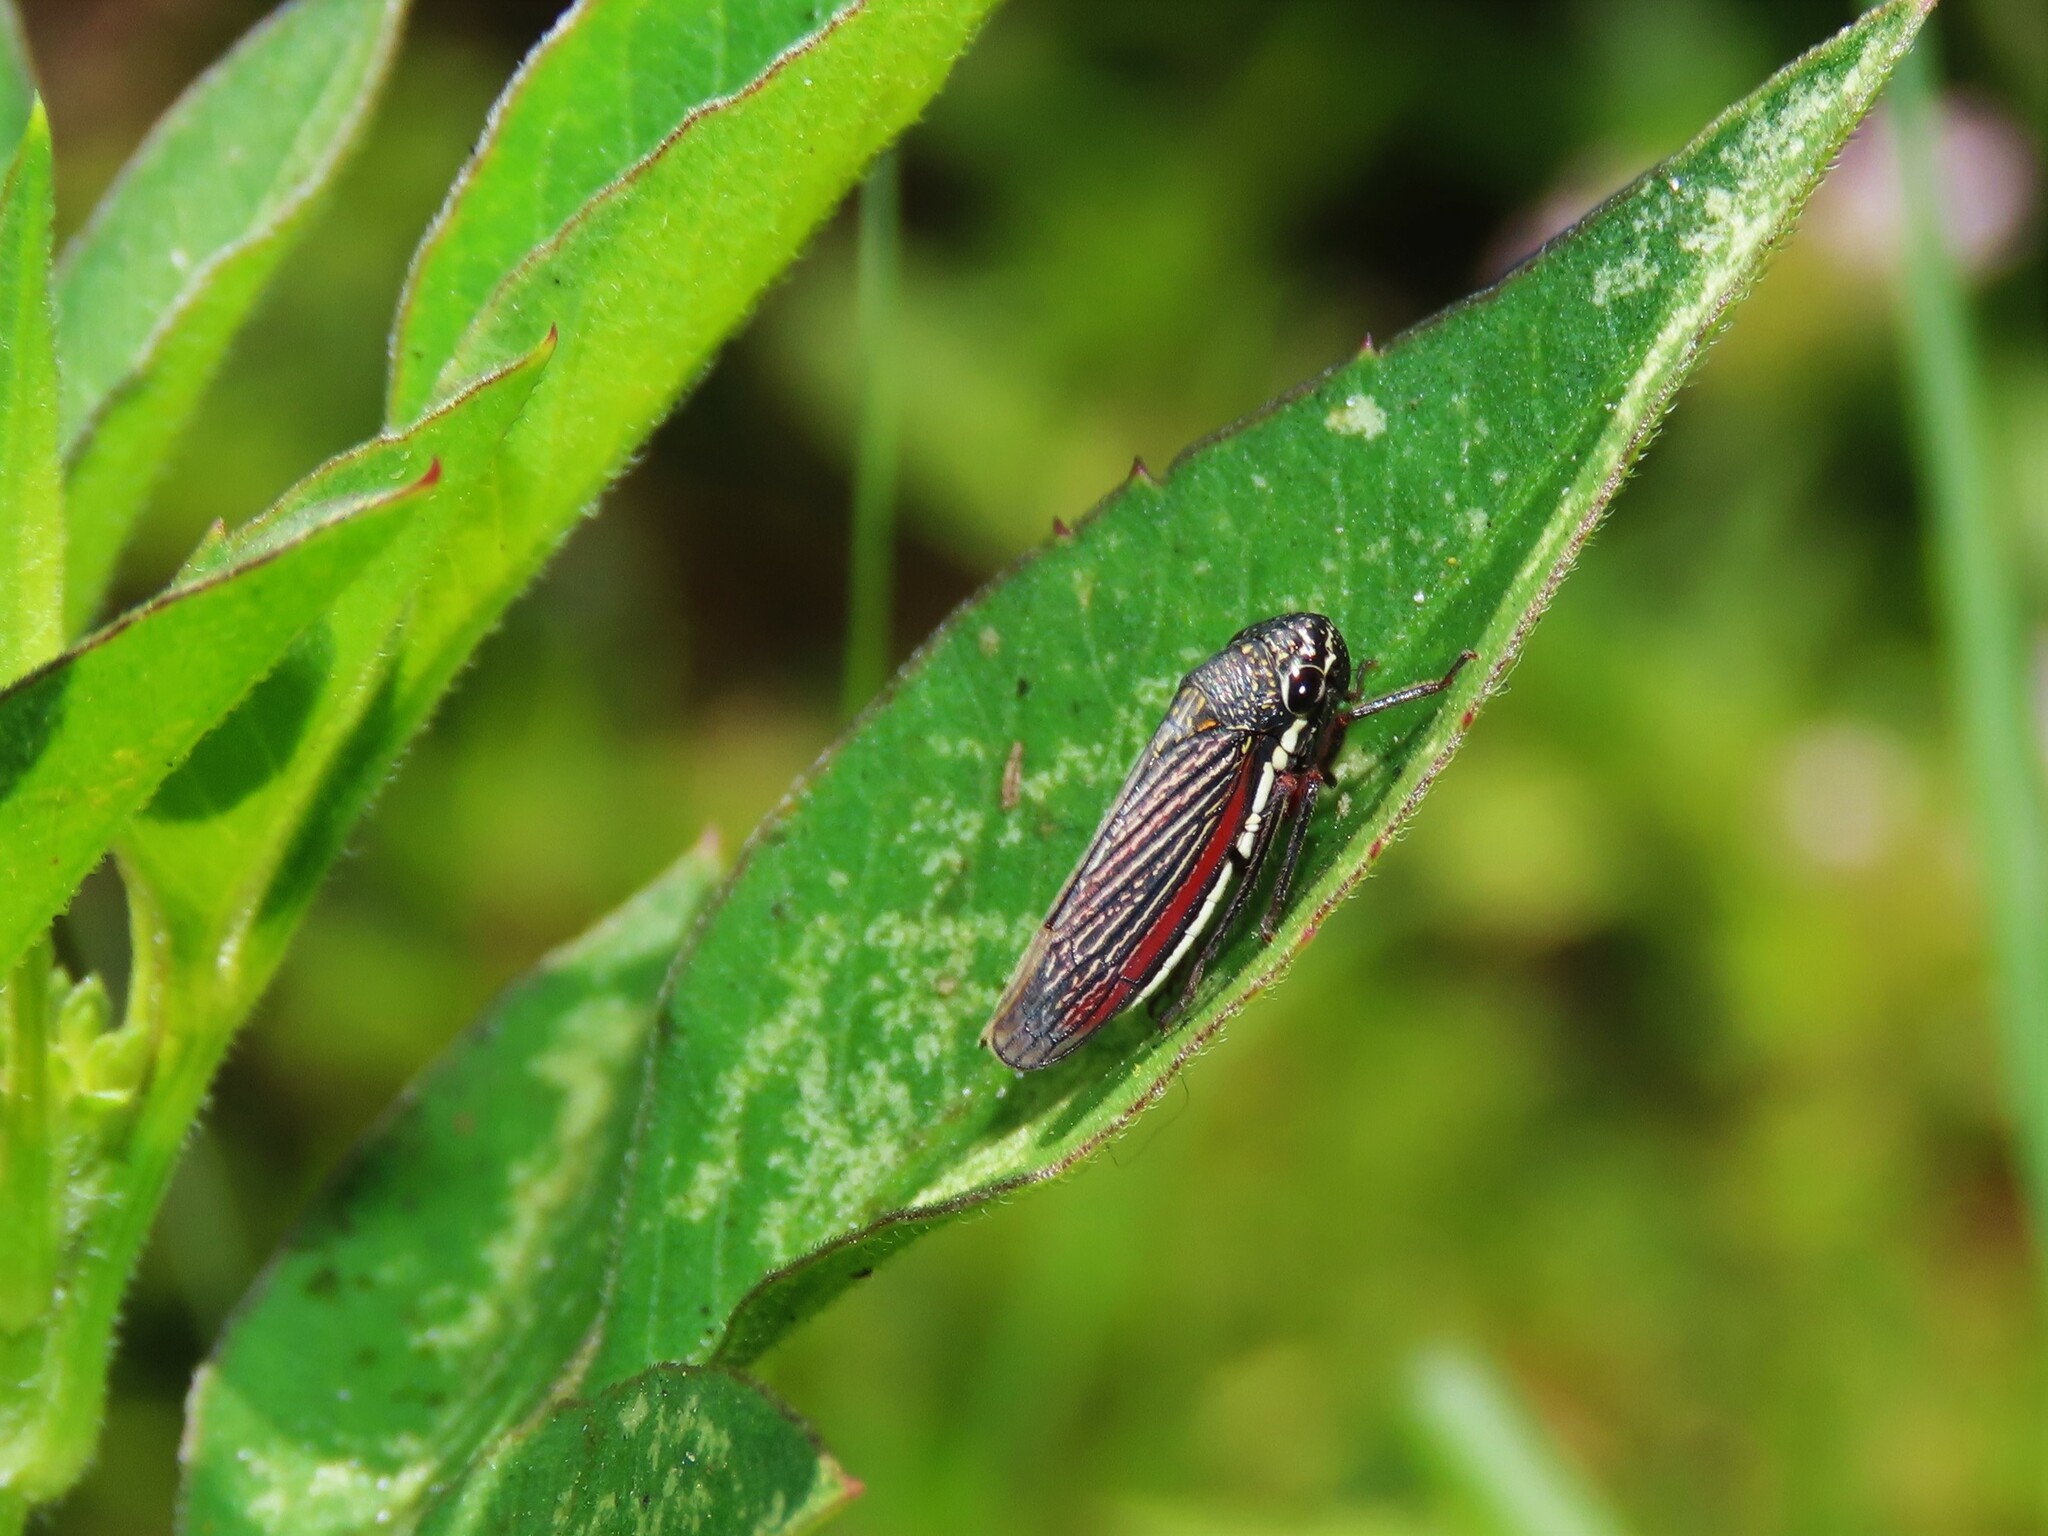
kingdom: Animalia
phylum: Arthropoda
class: Insecta
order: Hemiptera
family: Cicadellidae
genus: Cuerna
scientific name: Cuerna costalis
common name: Lateral-lined sharpshooter
